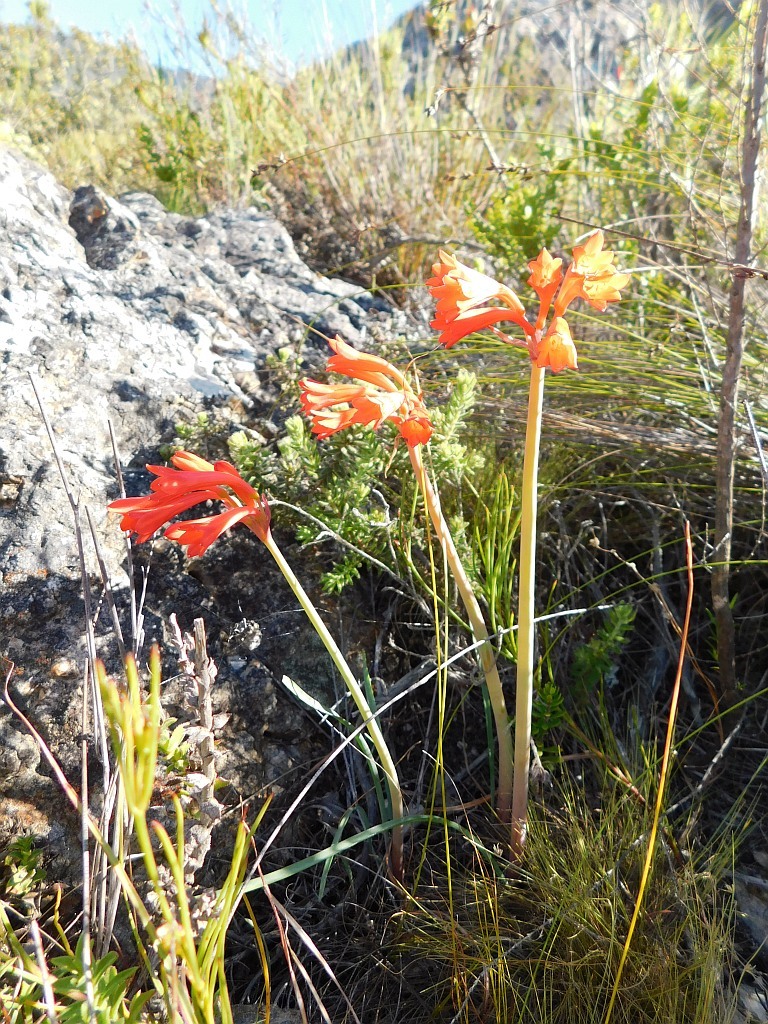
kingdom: Plantae
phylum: Tracheophyta
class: Liliopsida
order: Asparagales
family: Amaryllidaceae
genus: Cyrtanthus
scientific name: Cyrtanthus collinus
